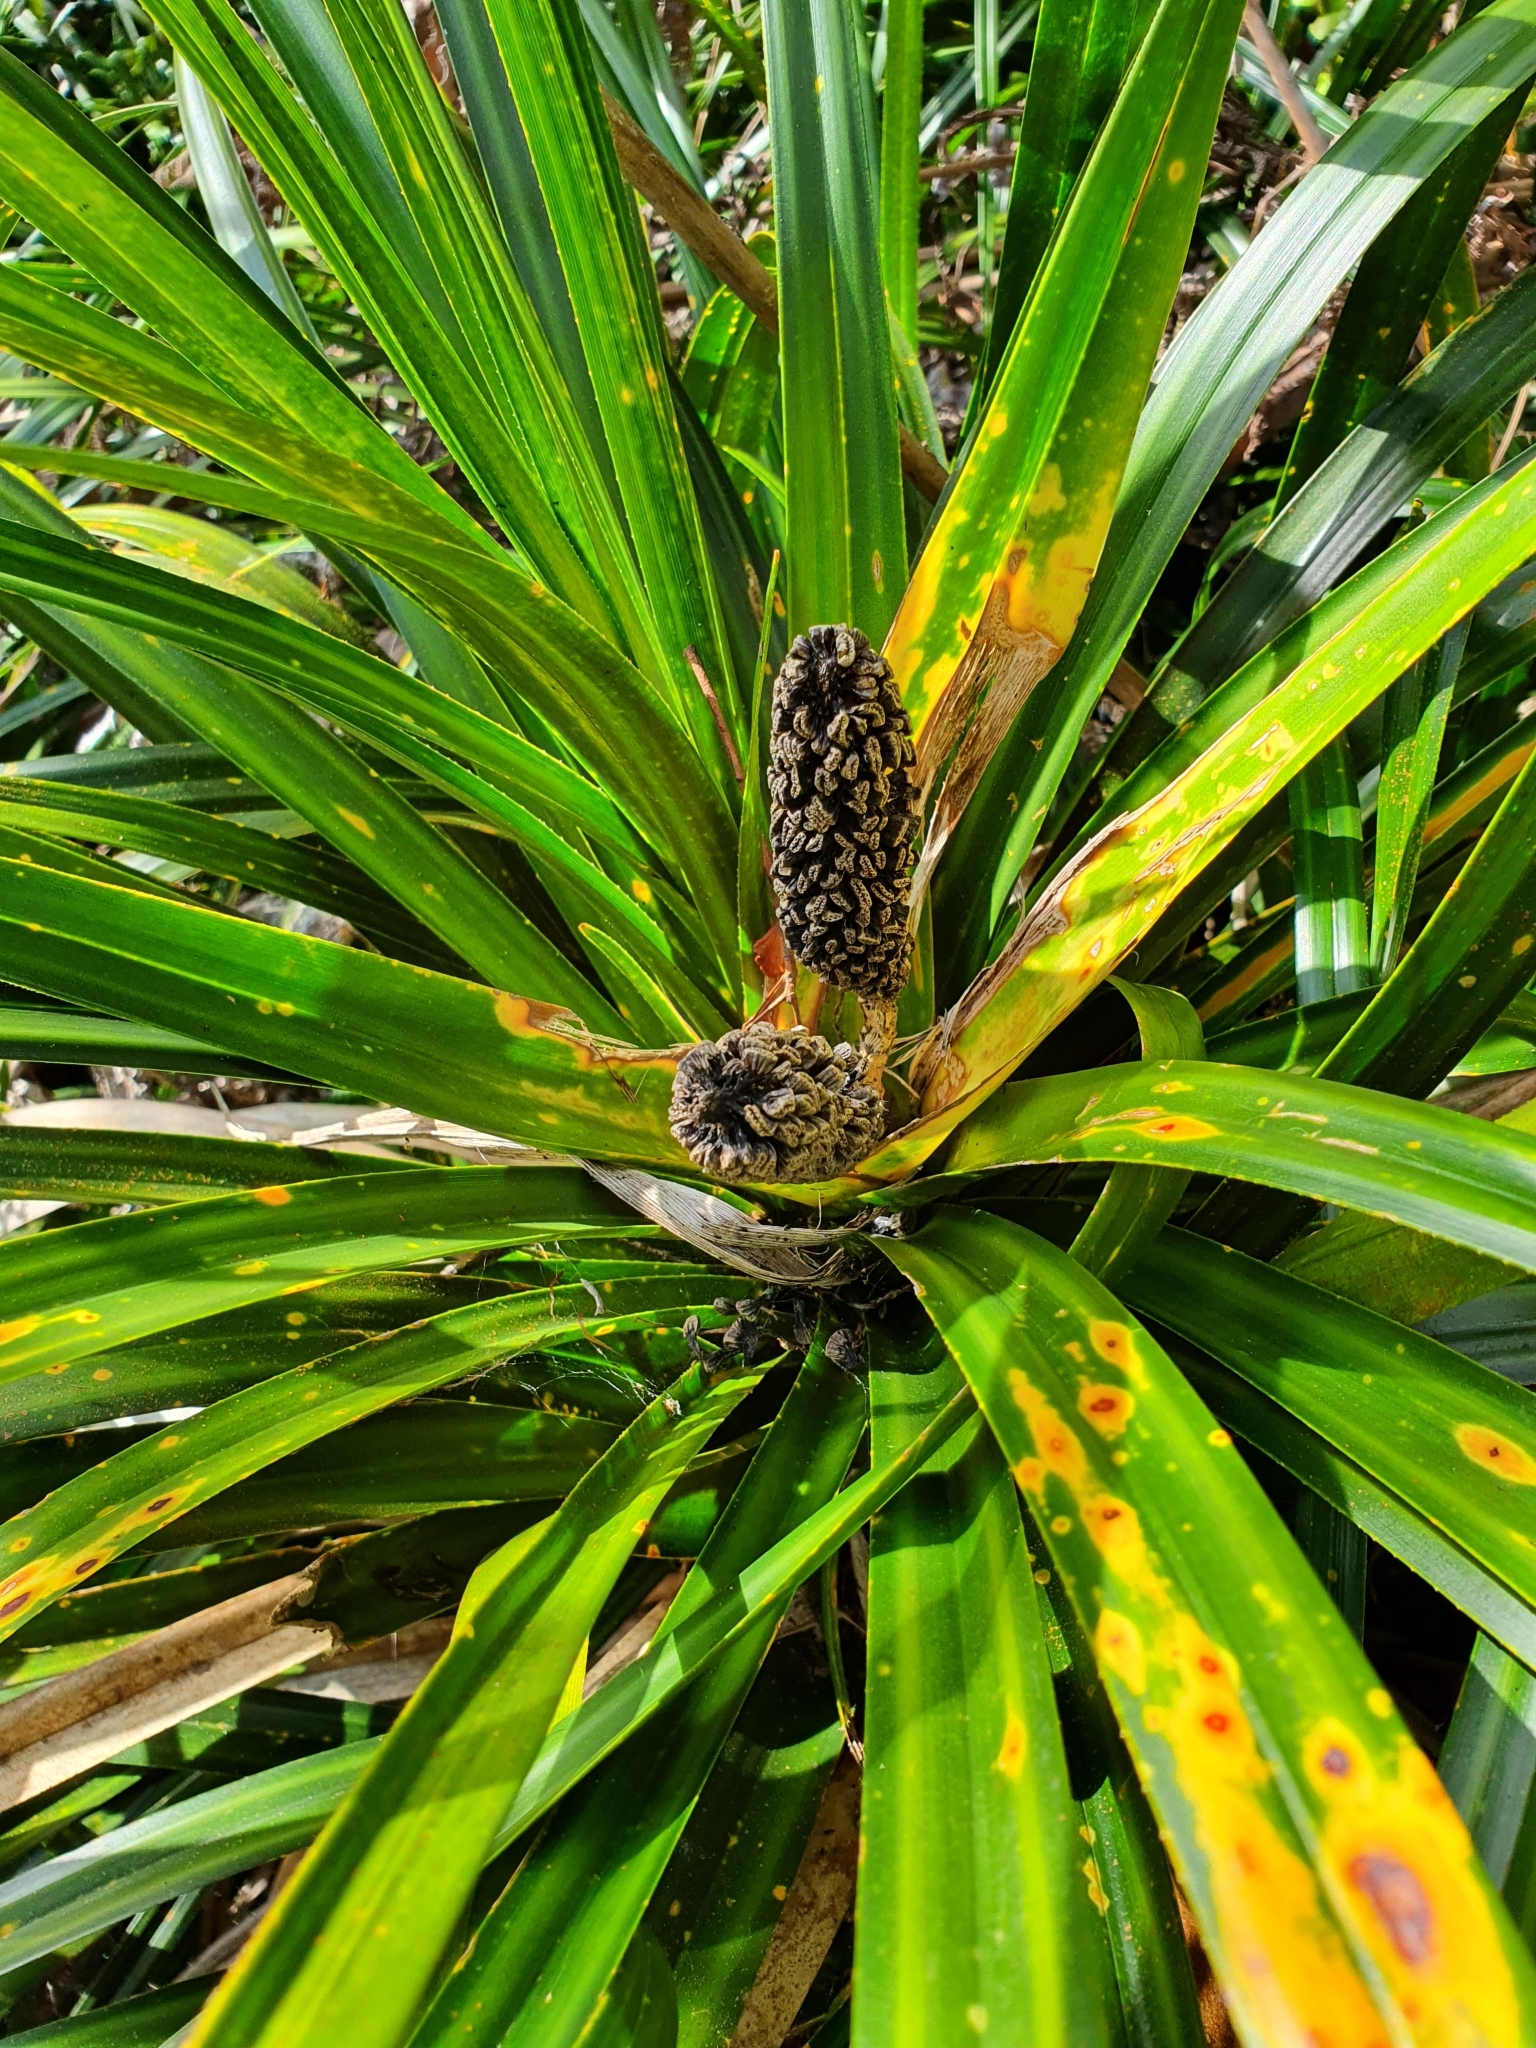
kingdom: Plantae
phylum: Tracheophyta
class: Liliopsida
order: Pandanales
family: Pandanaceae
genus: Freycinetia
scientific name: Freycinetia banksii
